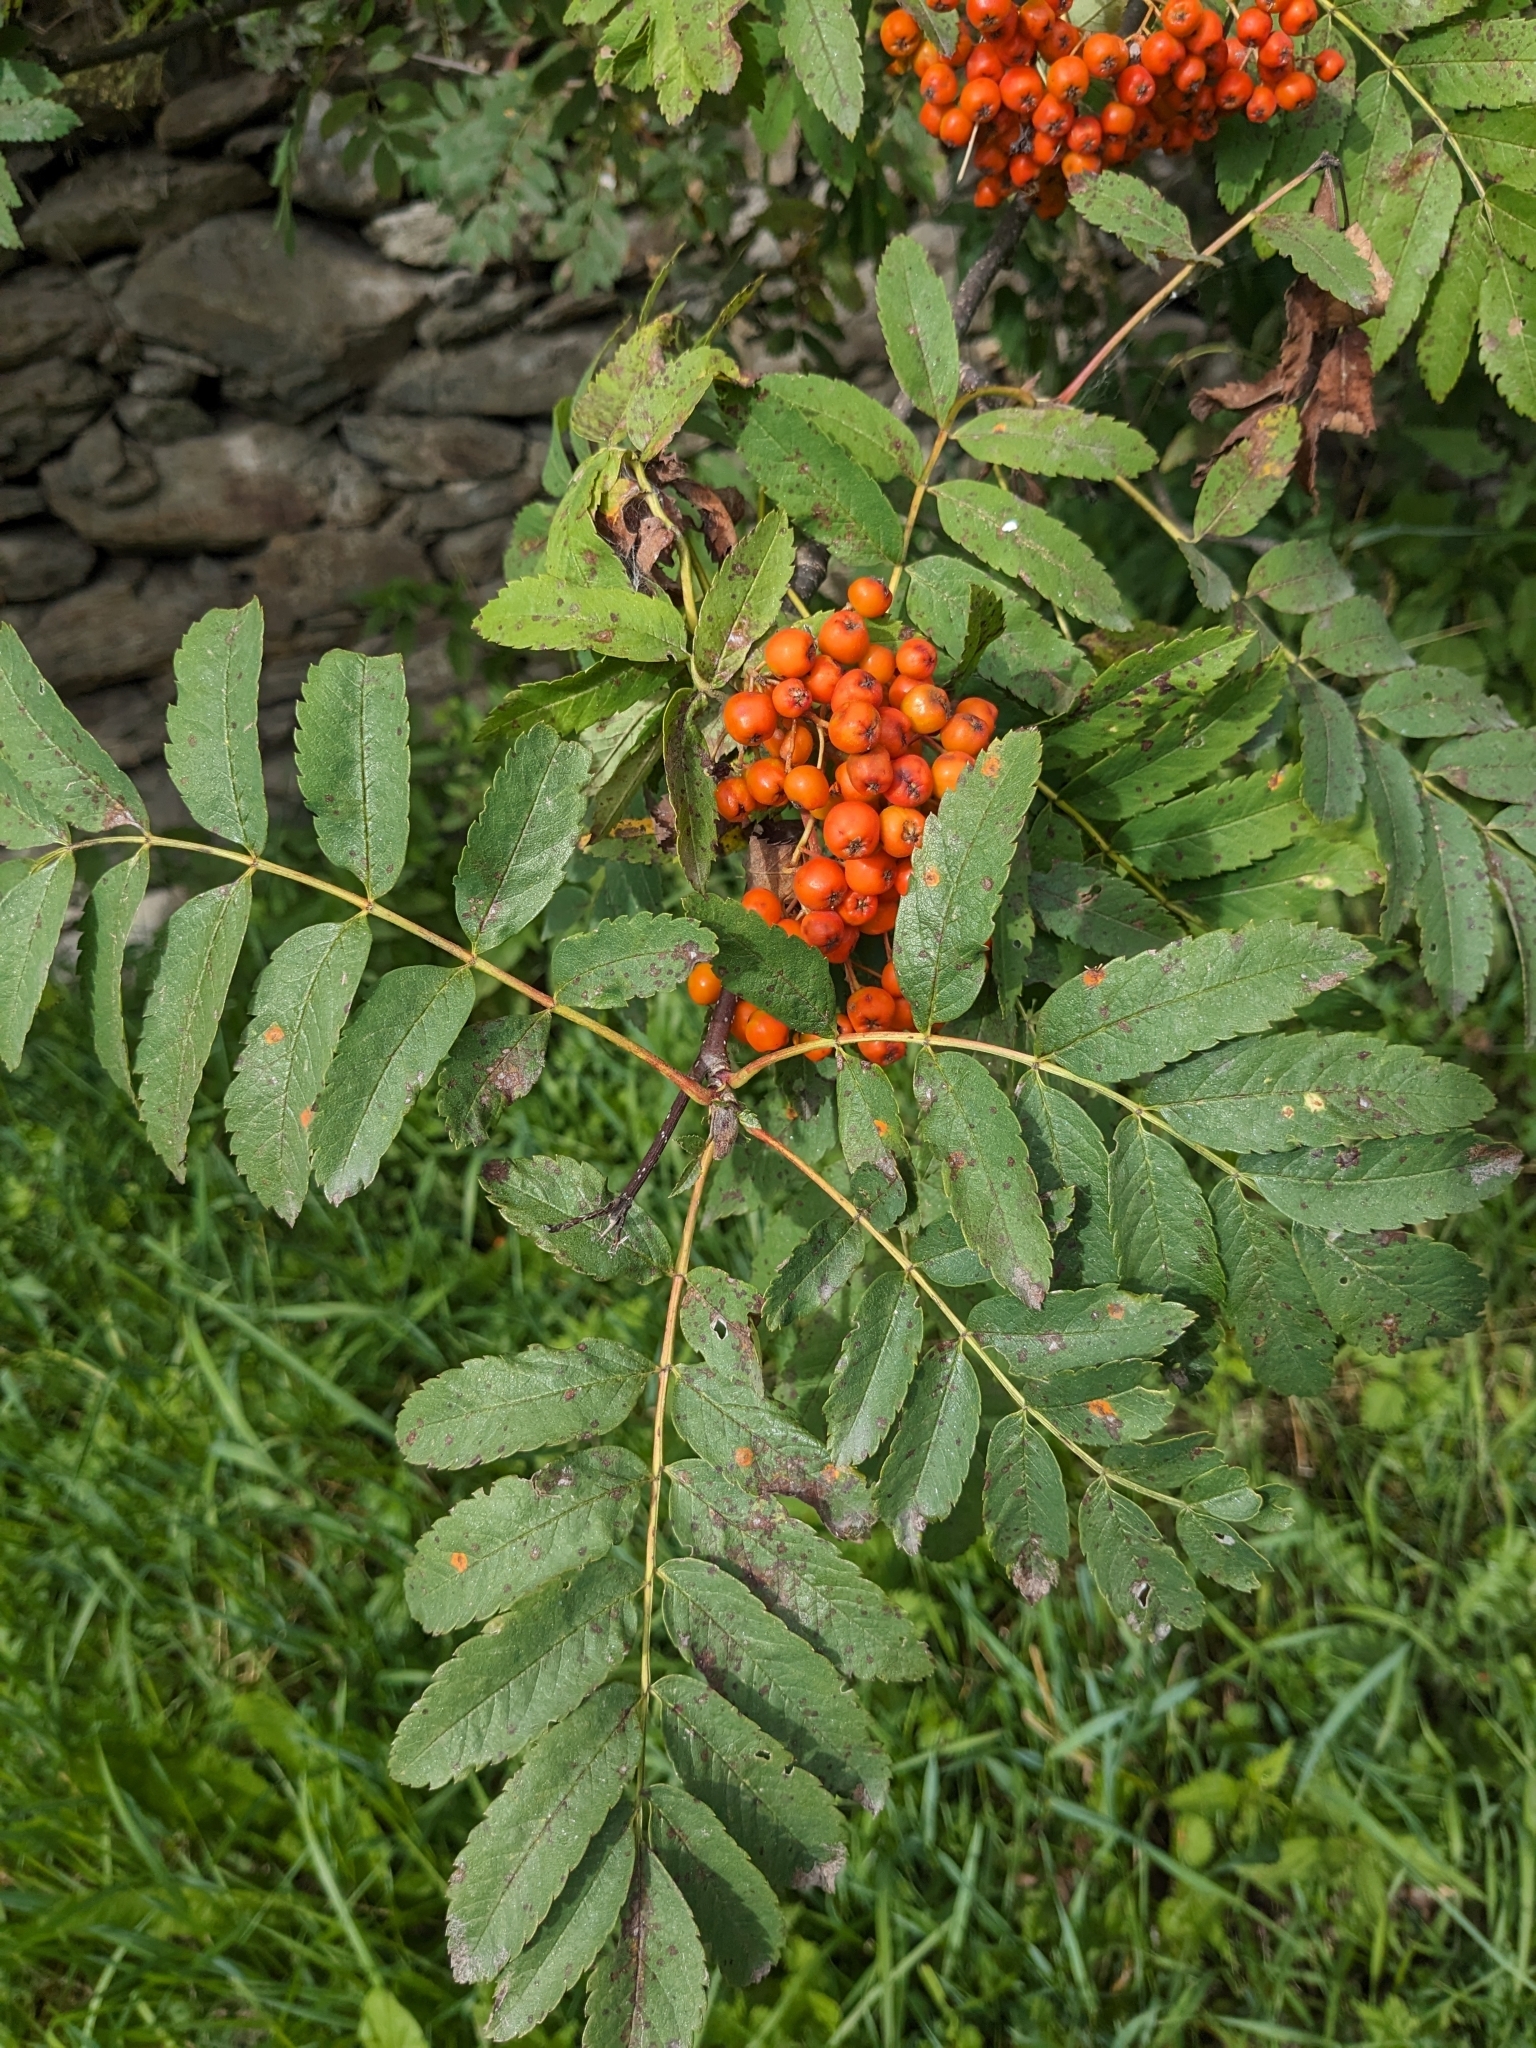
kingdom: Plantae
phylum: Tracheophyta
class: Magnoliopsida
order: Rosales
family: Rosaceae
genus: Sorbus
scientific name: Sorbus aucuparia
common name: Rowan
